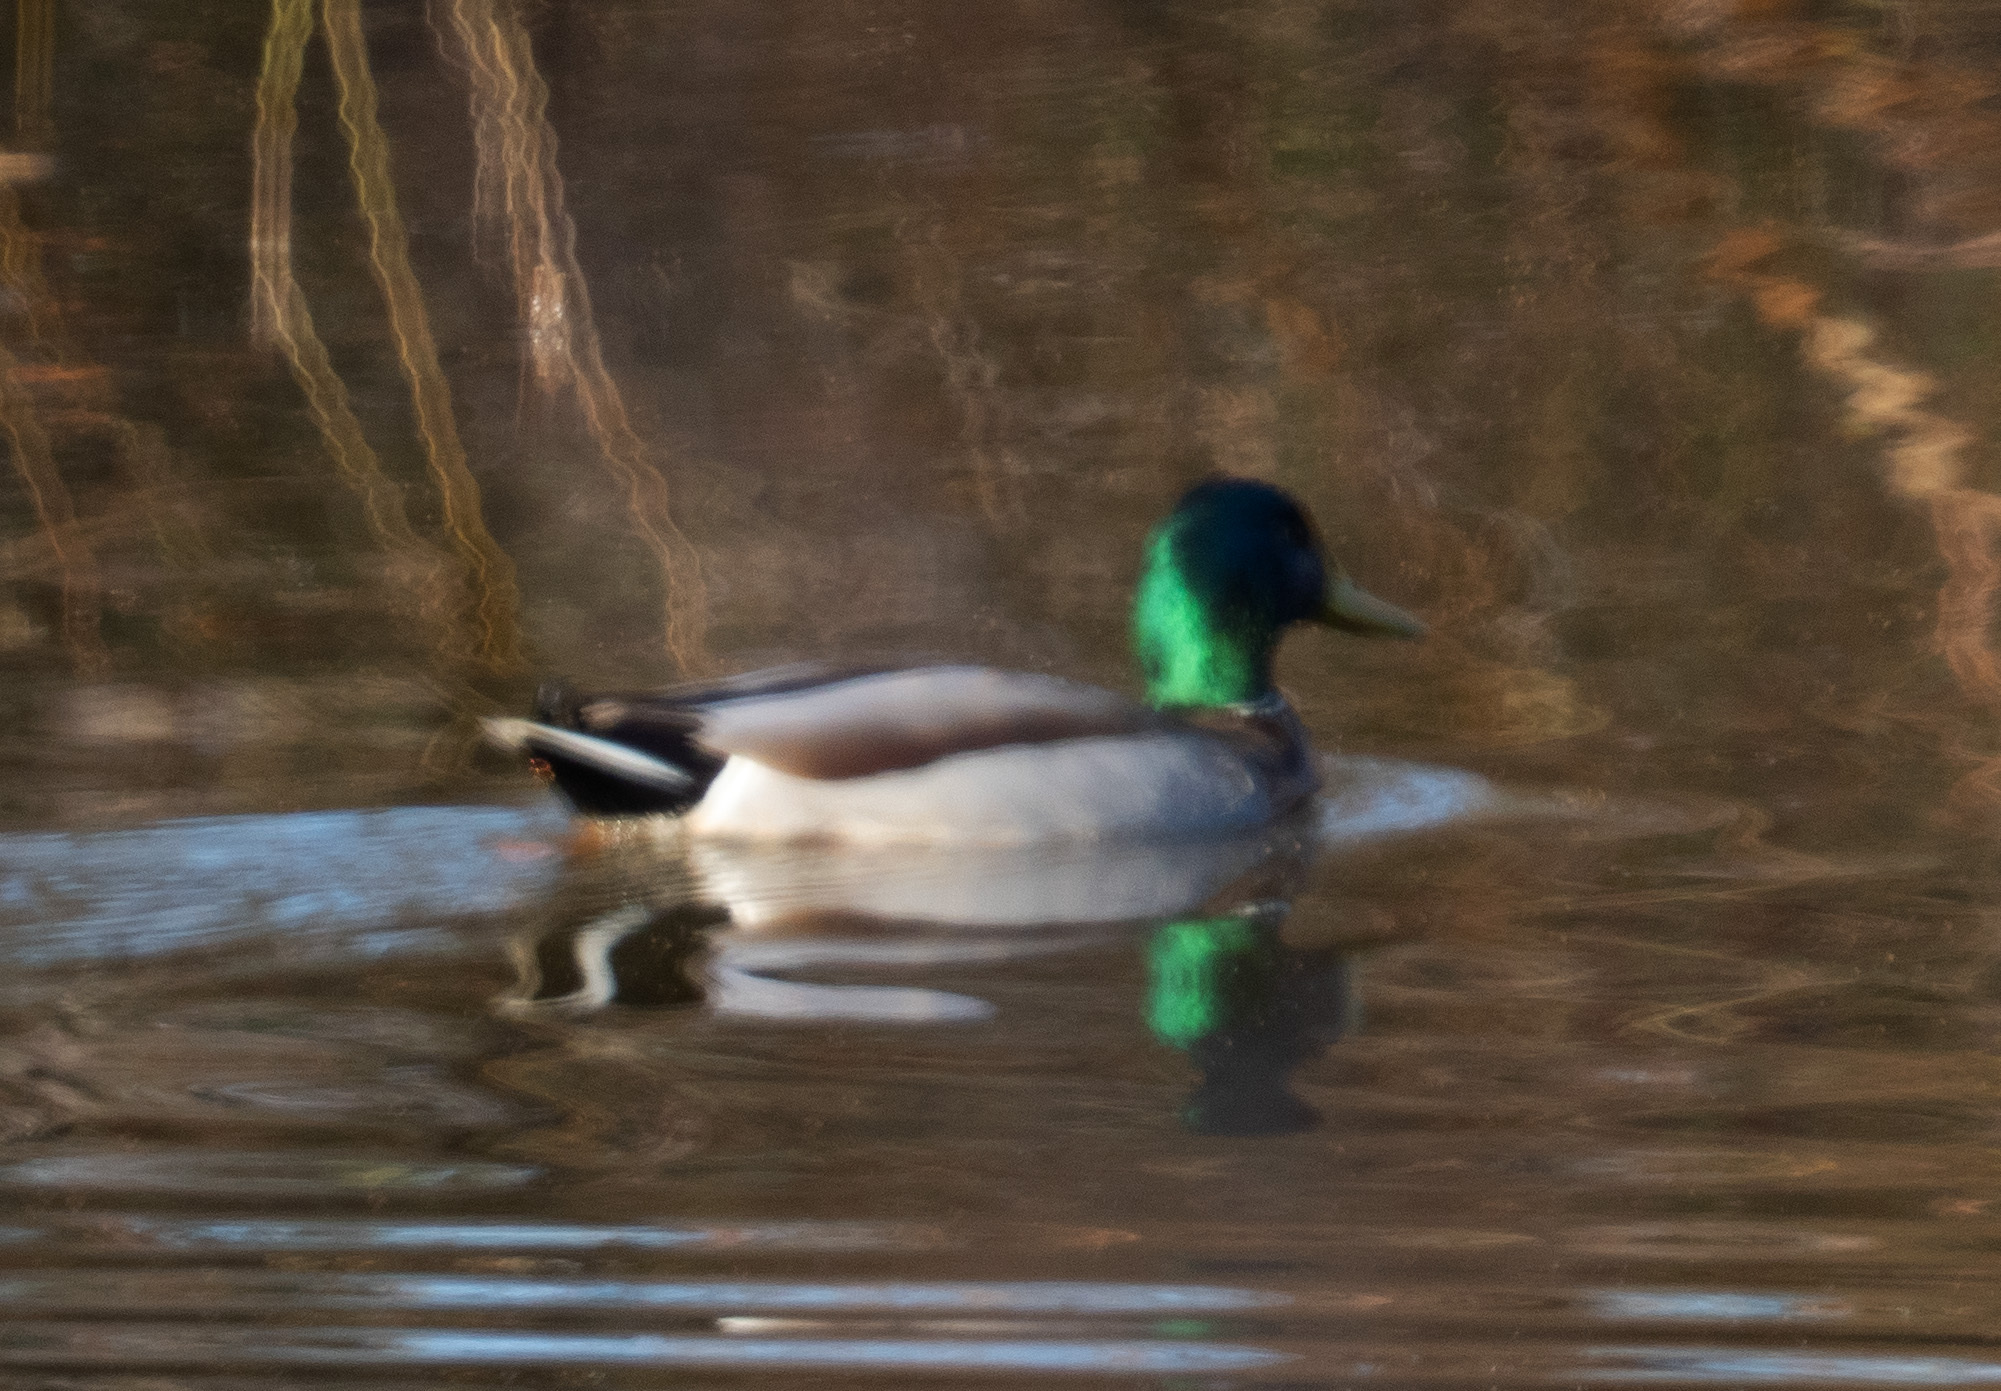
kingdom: Animalia
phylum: Chordata
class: Aves
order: Anseriformes
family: Anatidae
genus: Anas
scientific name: Anas platyrhynchos
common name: Mallard
